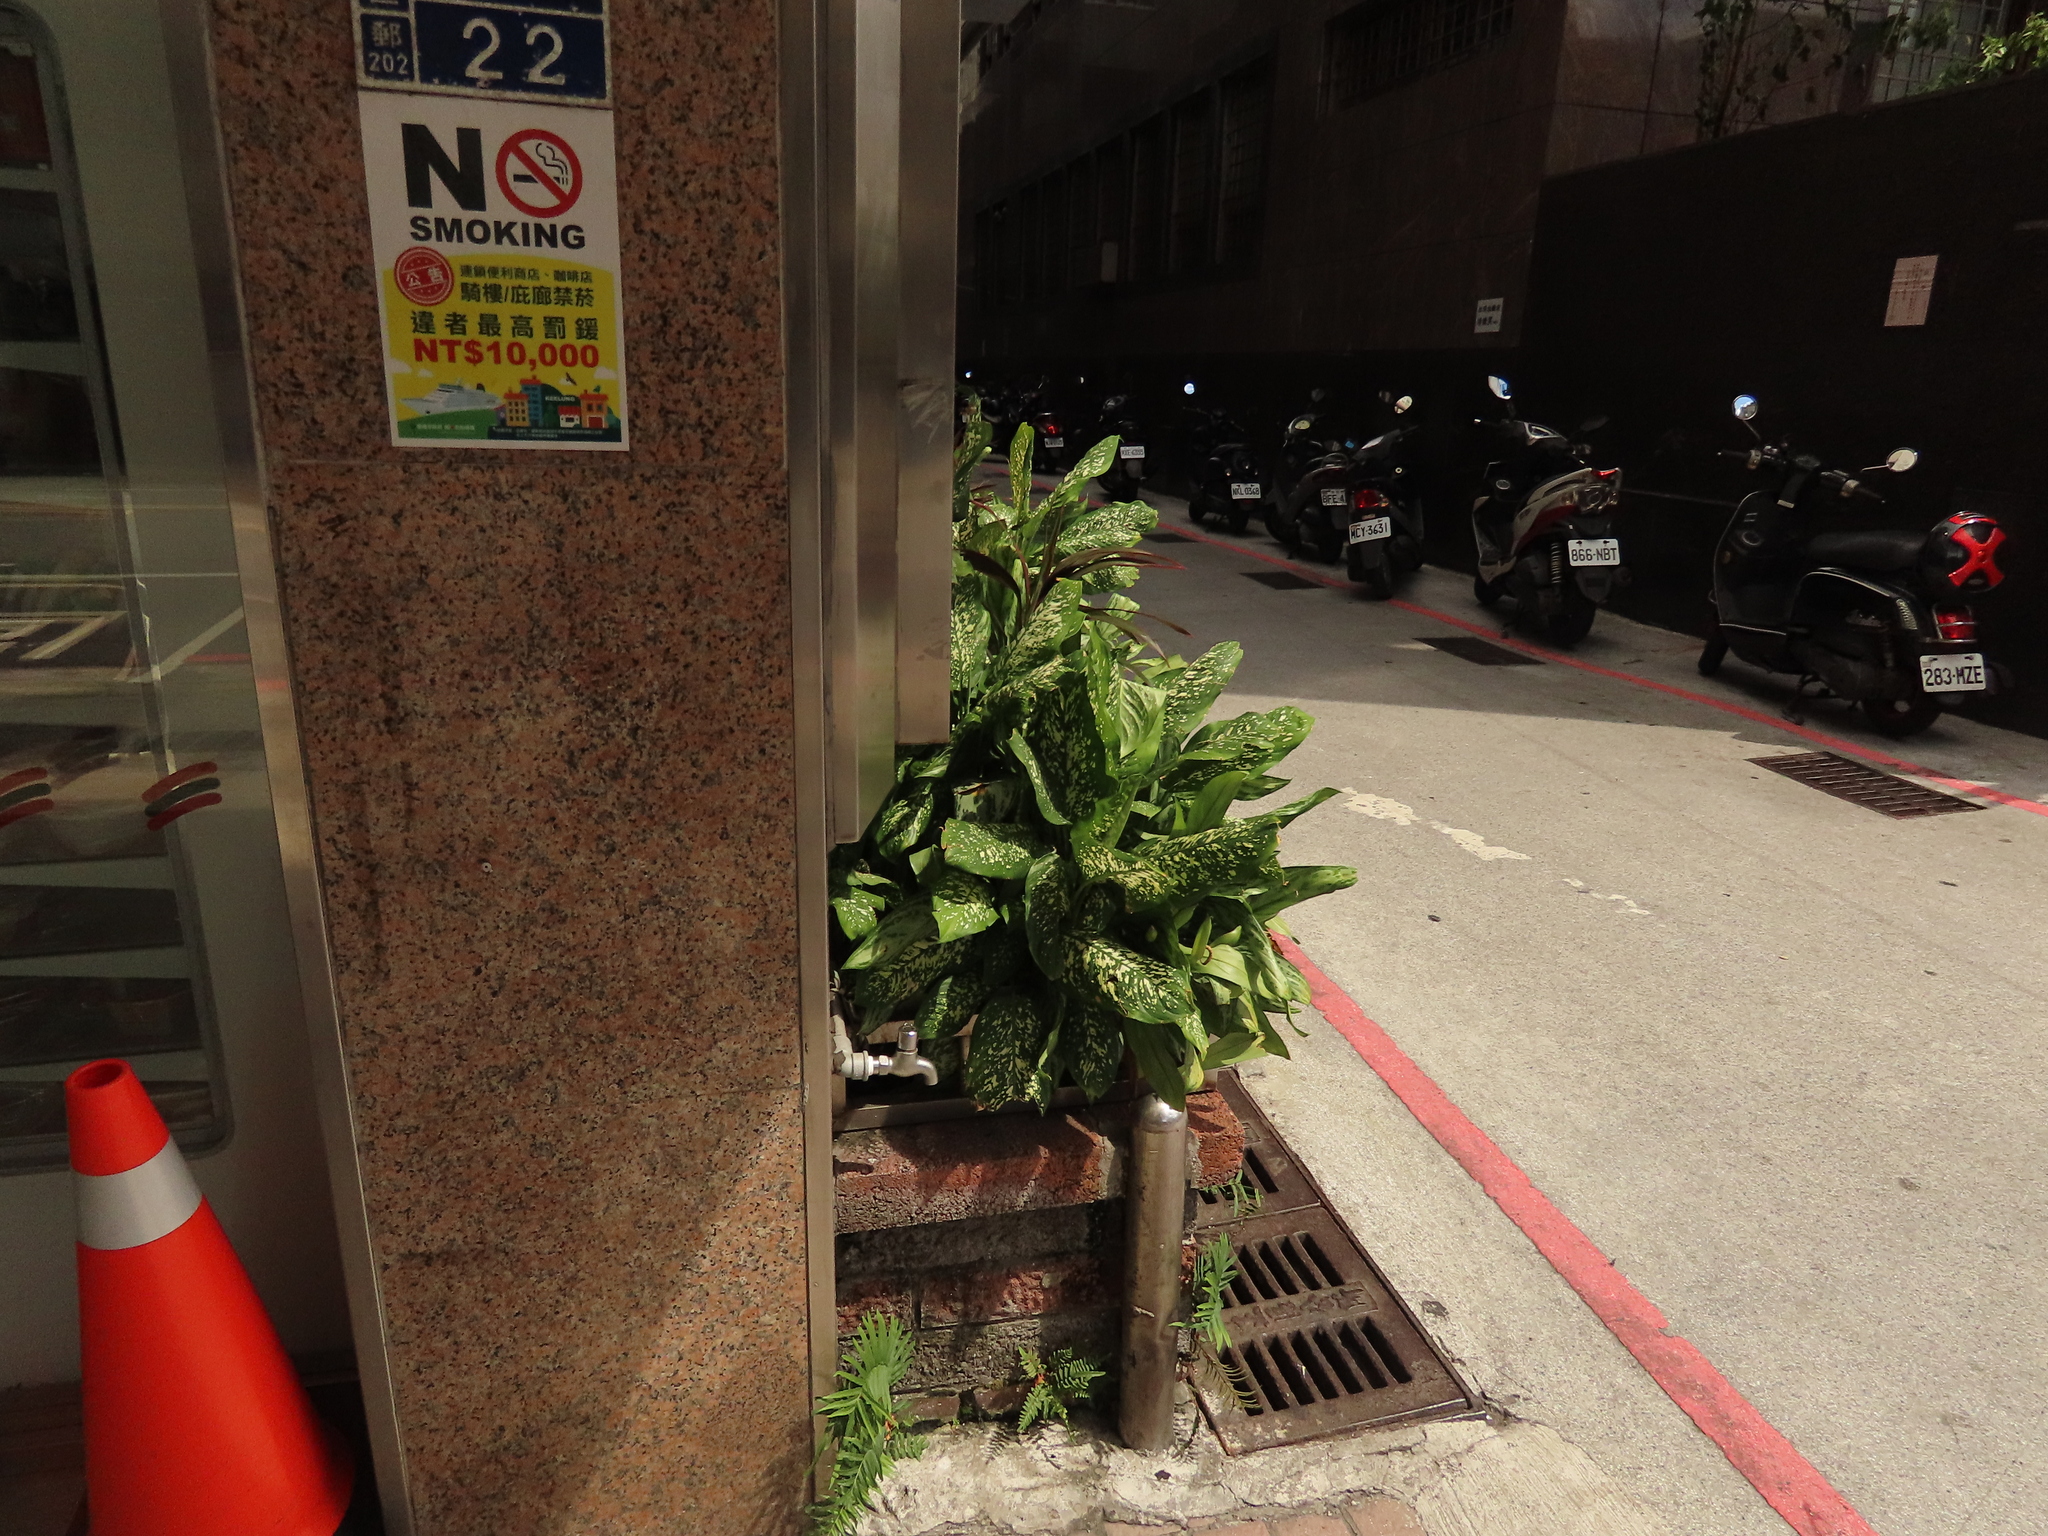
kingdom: Plantae
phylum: Tracheophyta
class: Polypodiopsida
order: Polypodiales
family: Pteridaceae
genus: Pteris
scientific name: Pteris vittata
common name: Ladder brake
